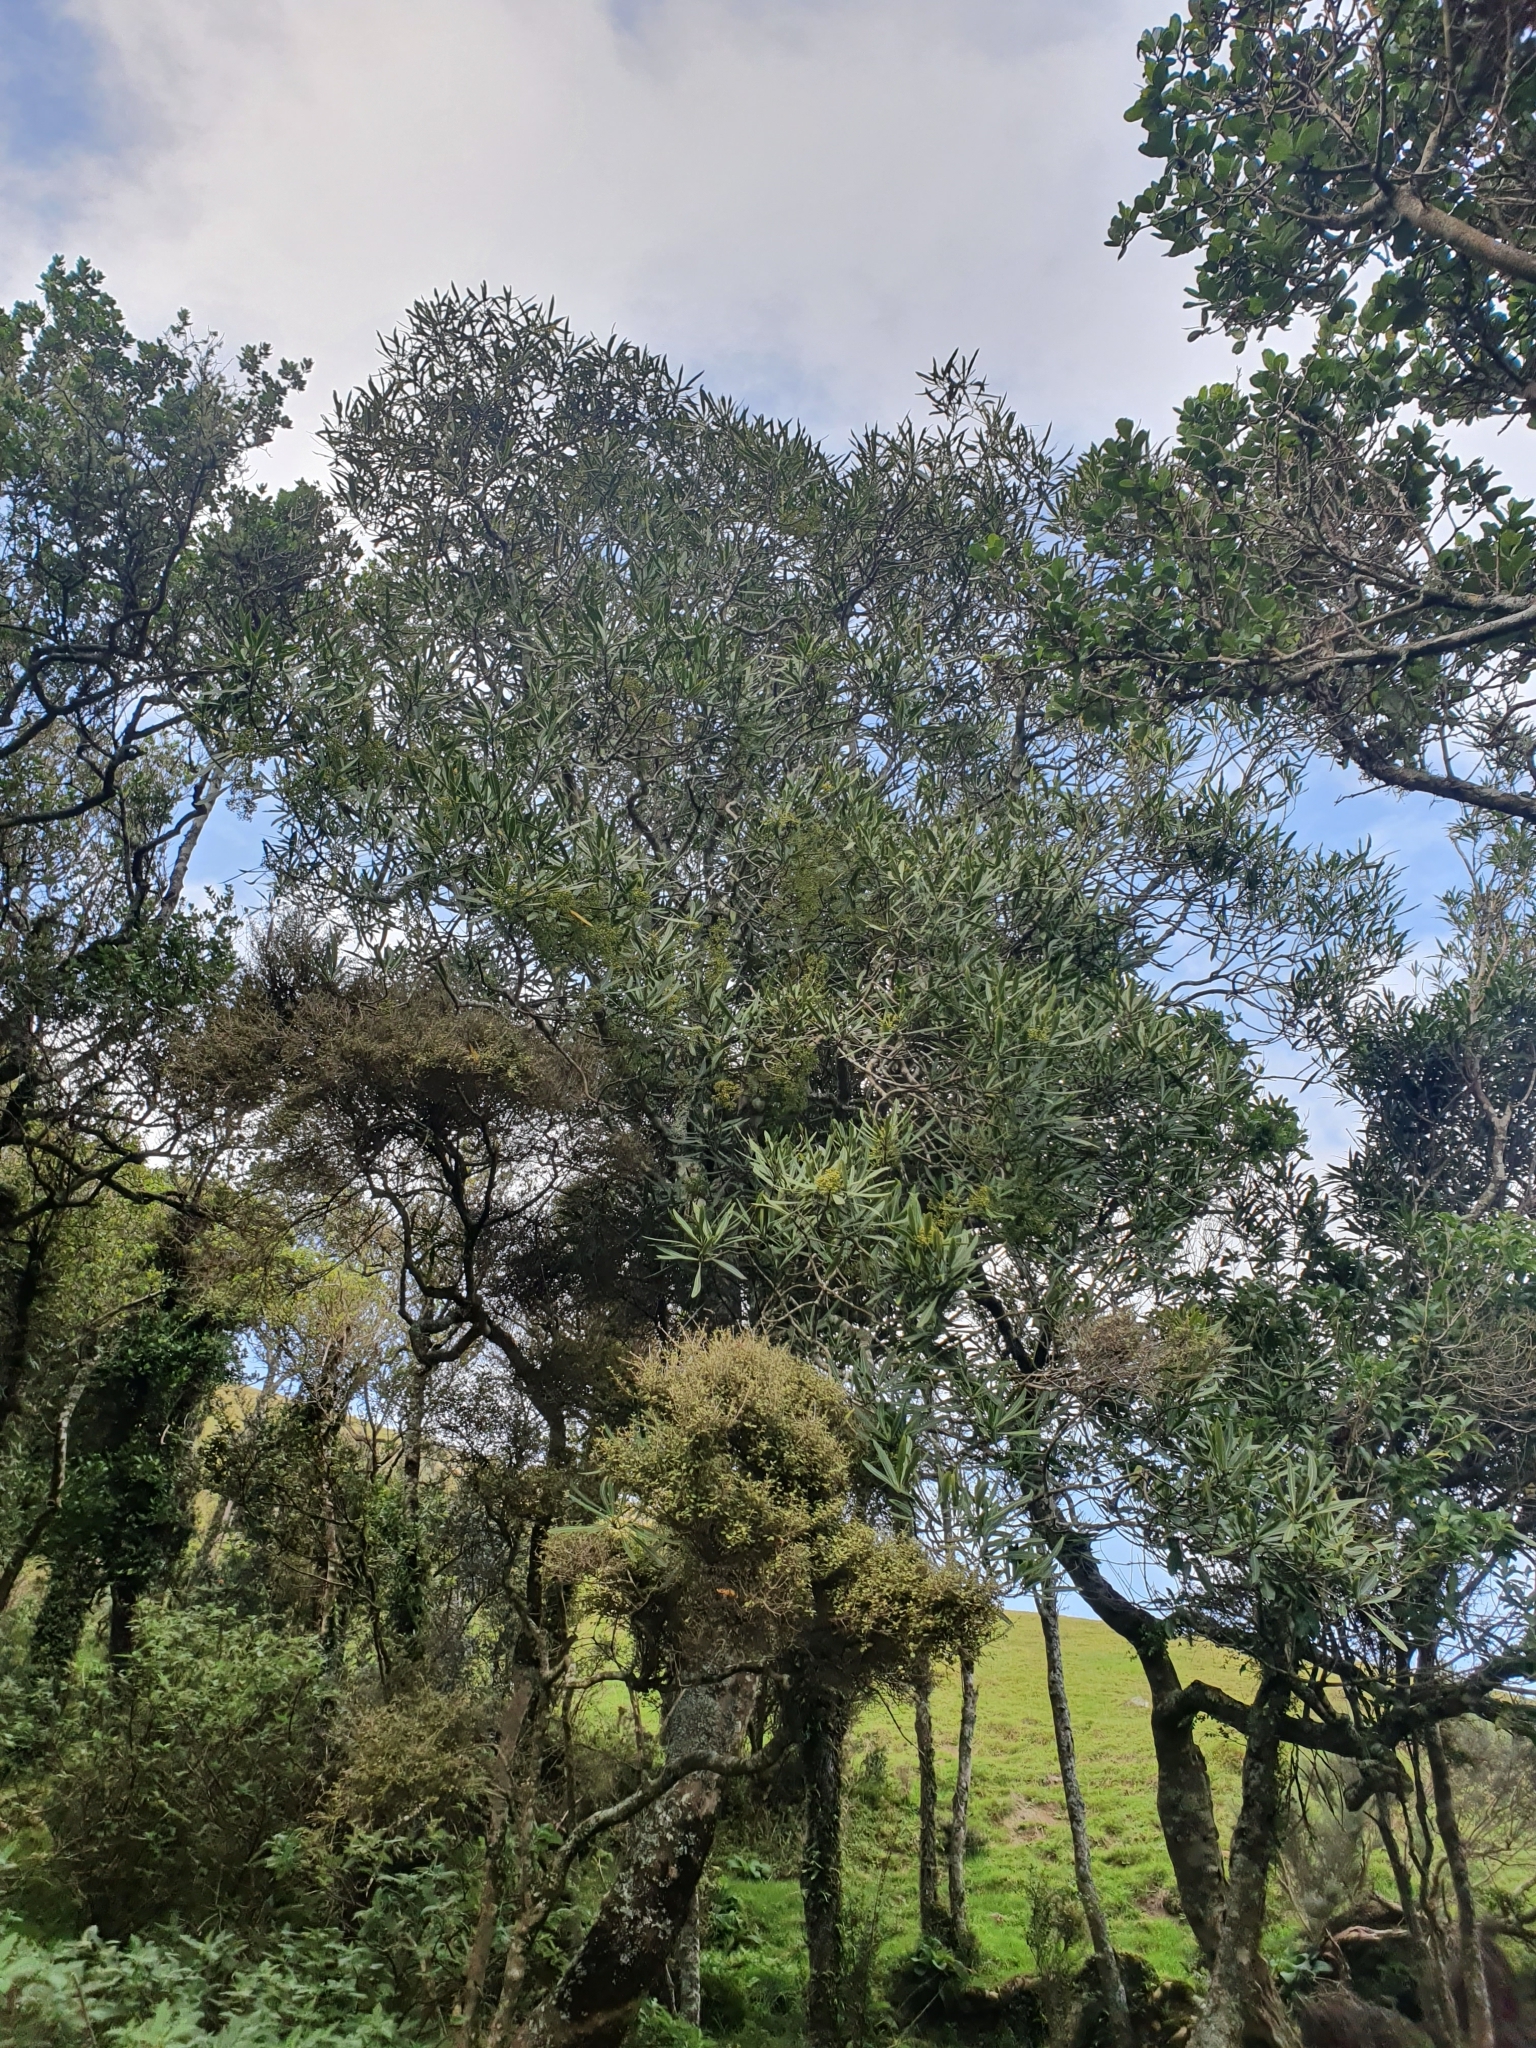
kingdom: Plantae
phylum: Tracheophyta
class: Magnoliopsida
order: Apiales
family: Araliaceae
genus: Pseudopanax
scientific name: Pseudopanax crassifolius
